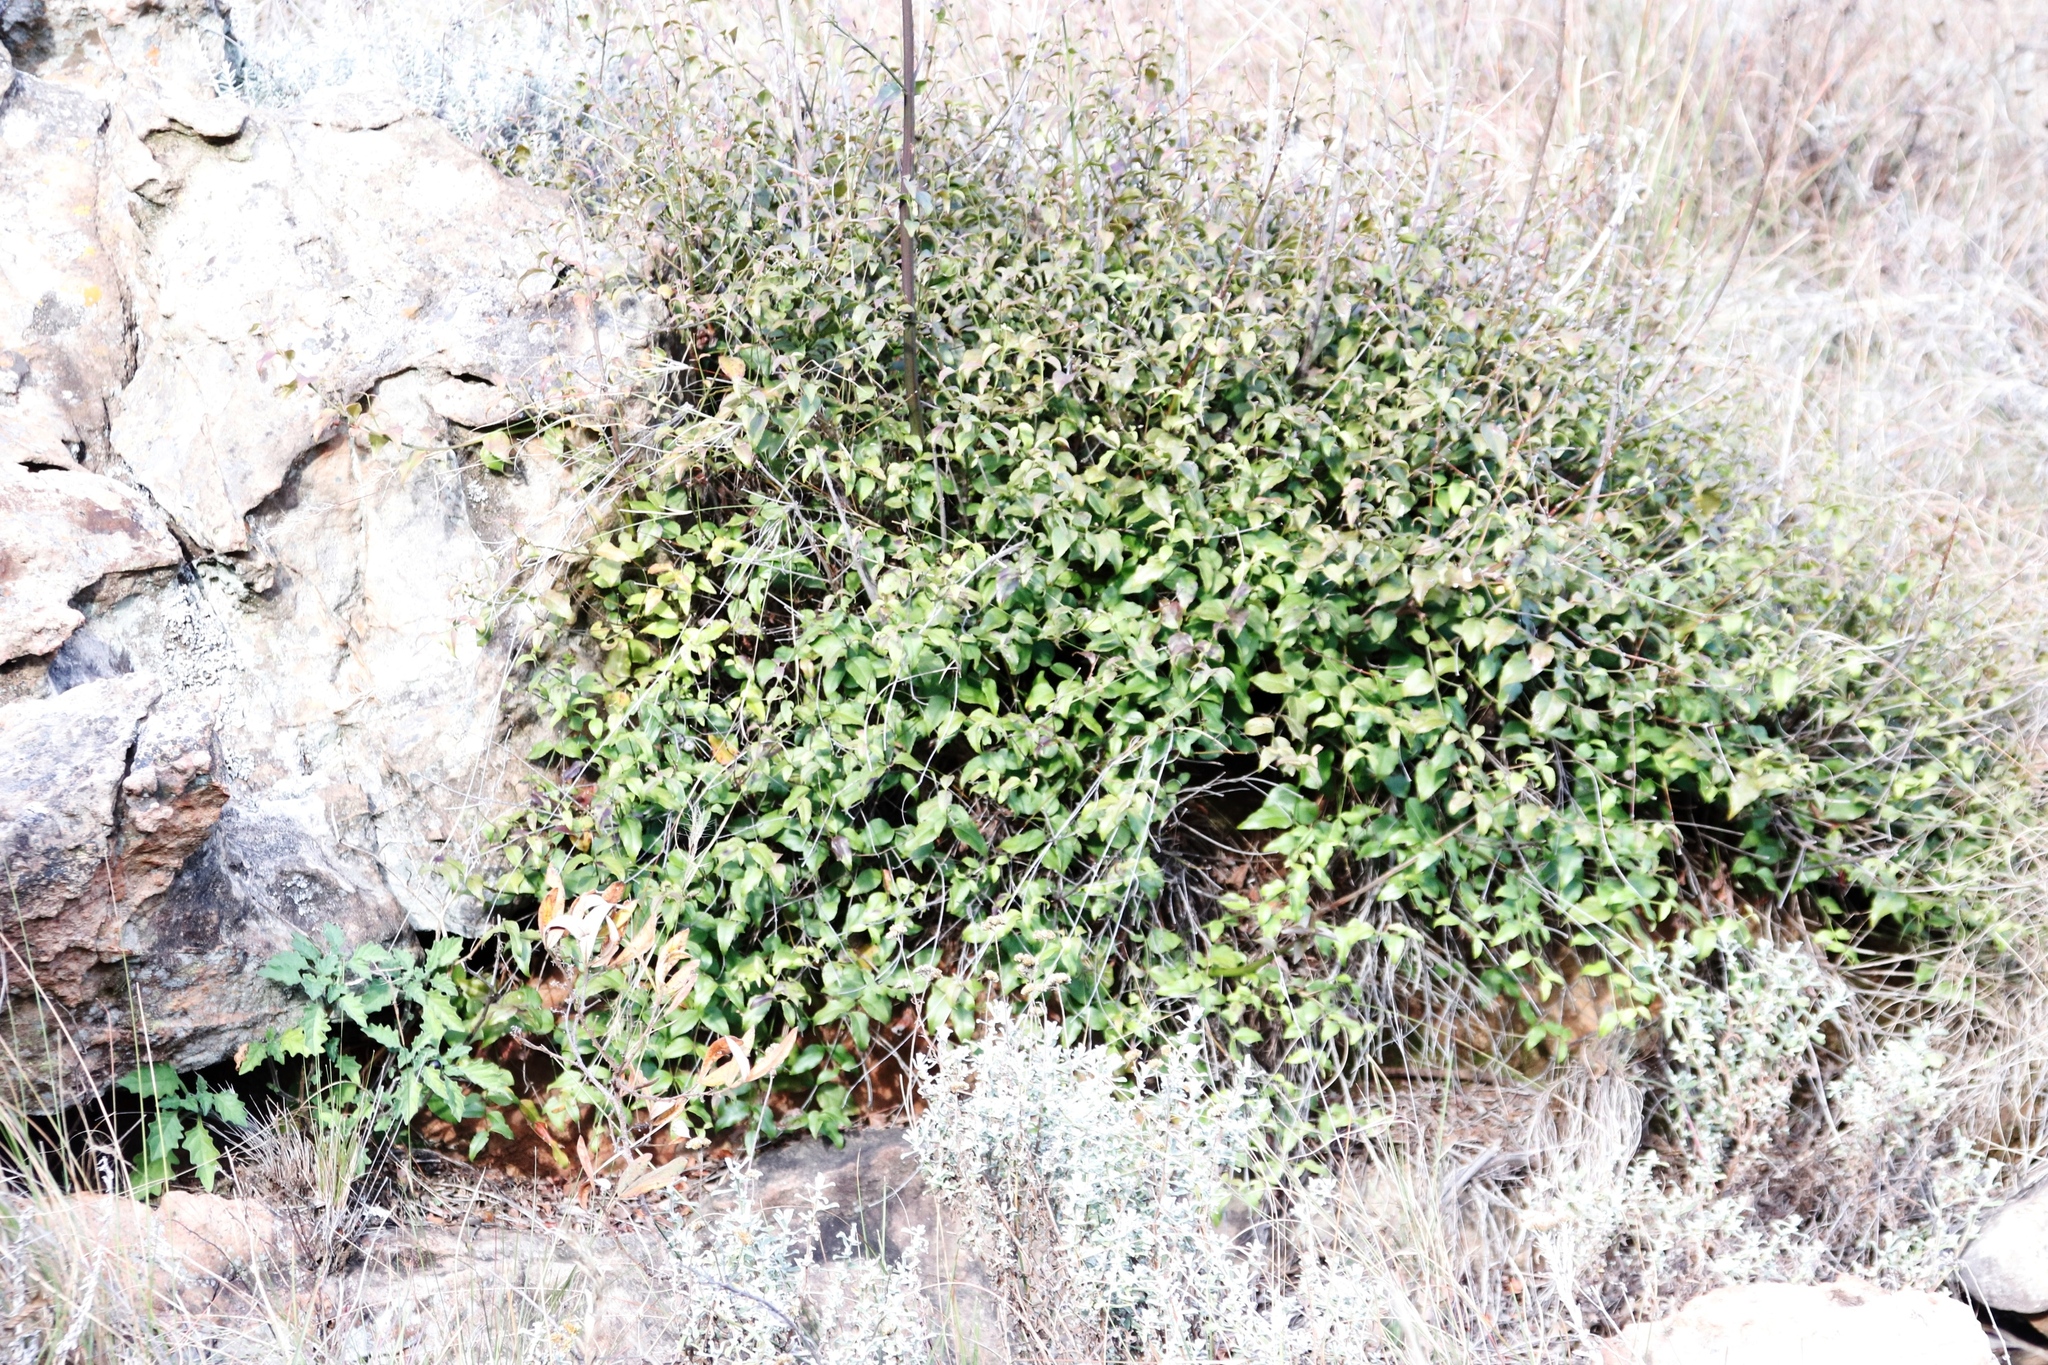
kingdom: Plantae
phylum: Tracheophyta
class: Magnoliopsida
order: Lamiales
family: Stilbaceae
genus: Halleria
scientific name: Halleria lucida
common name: Tree fuschia
